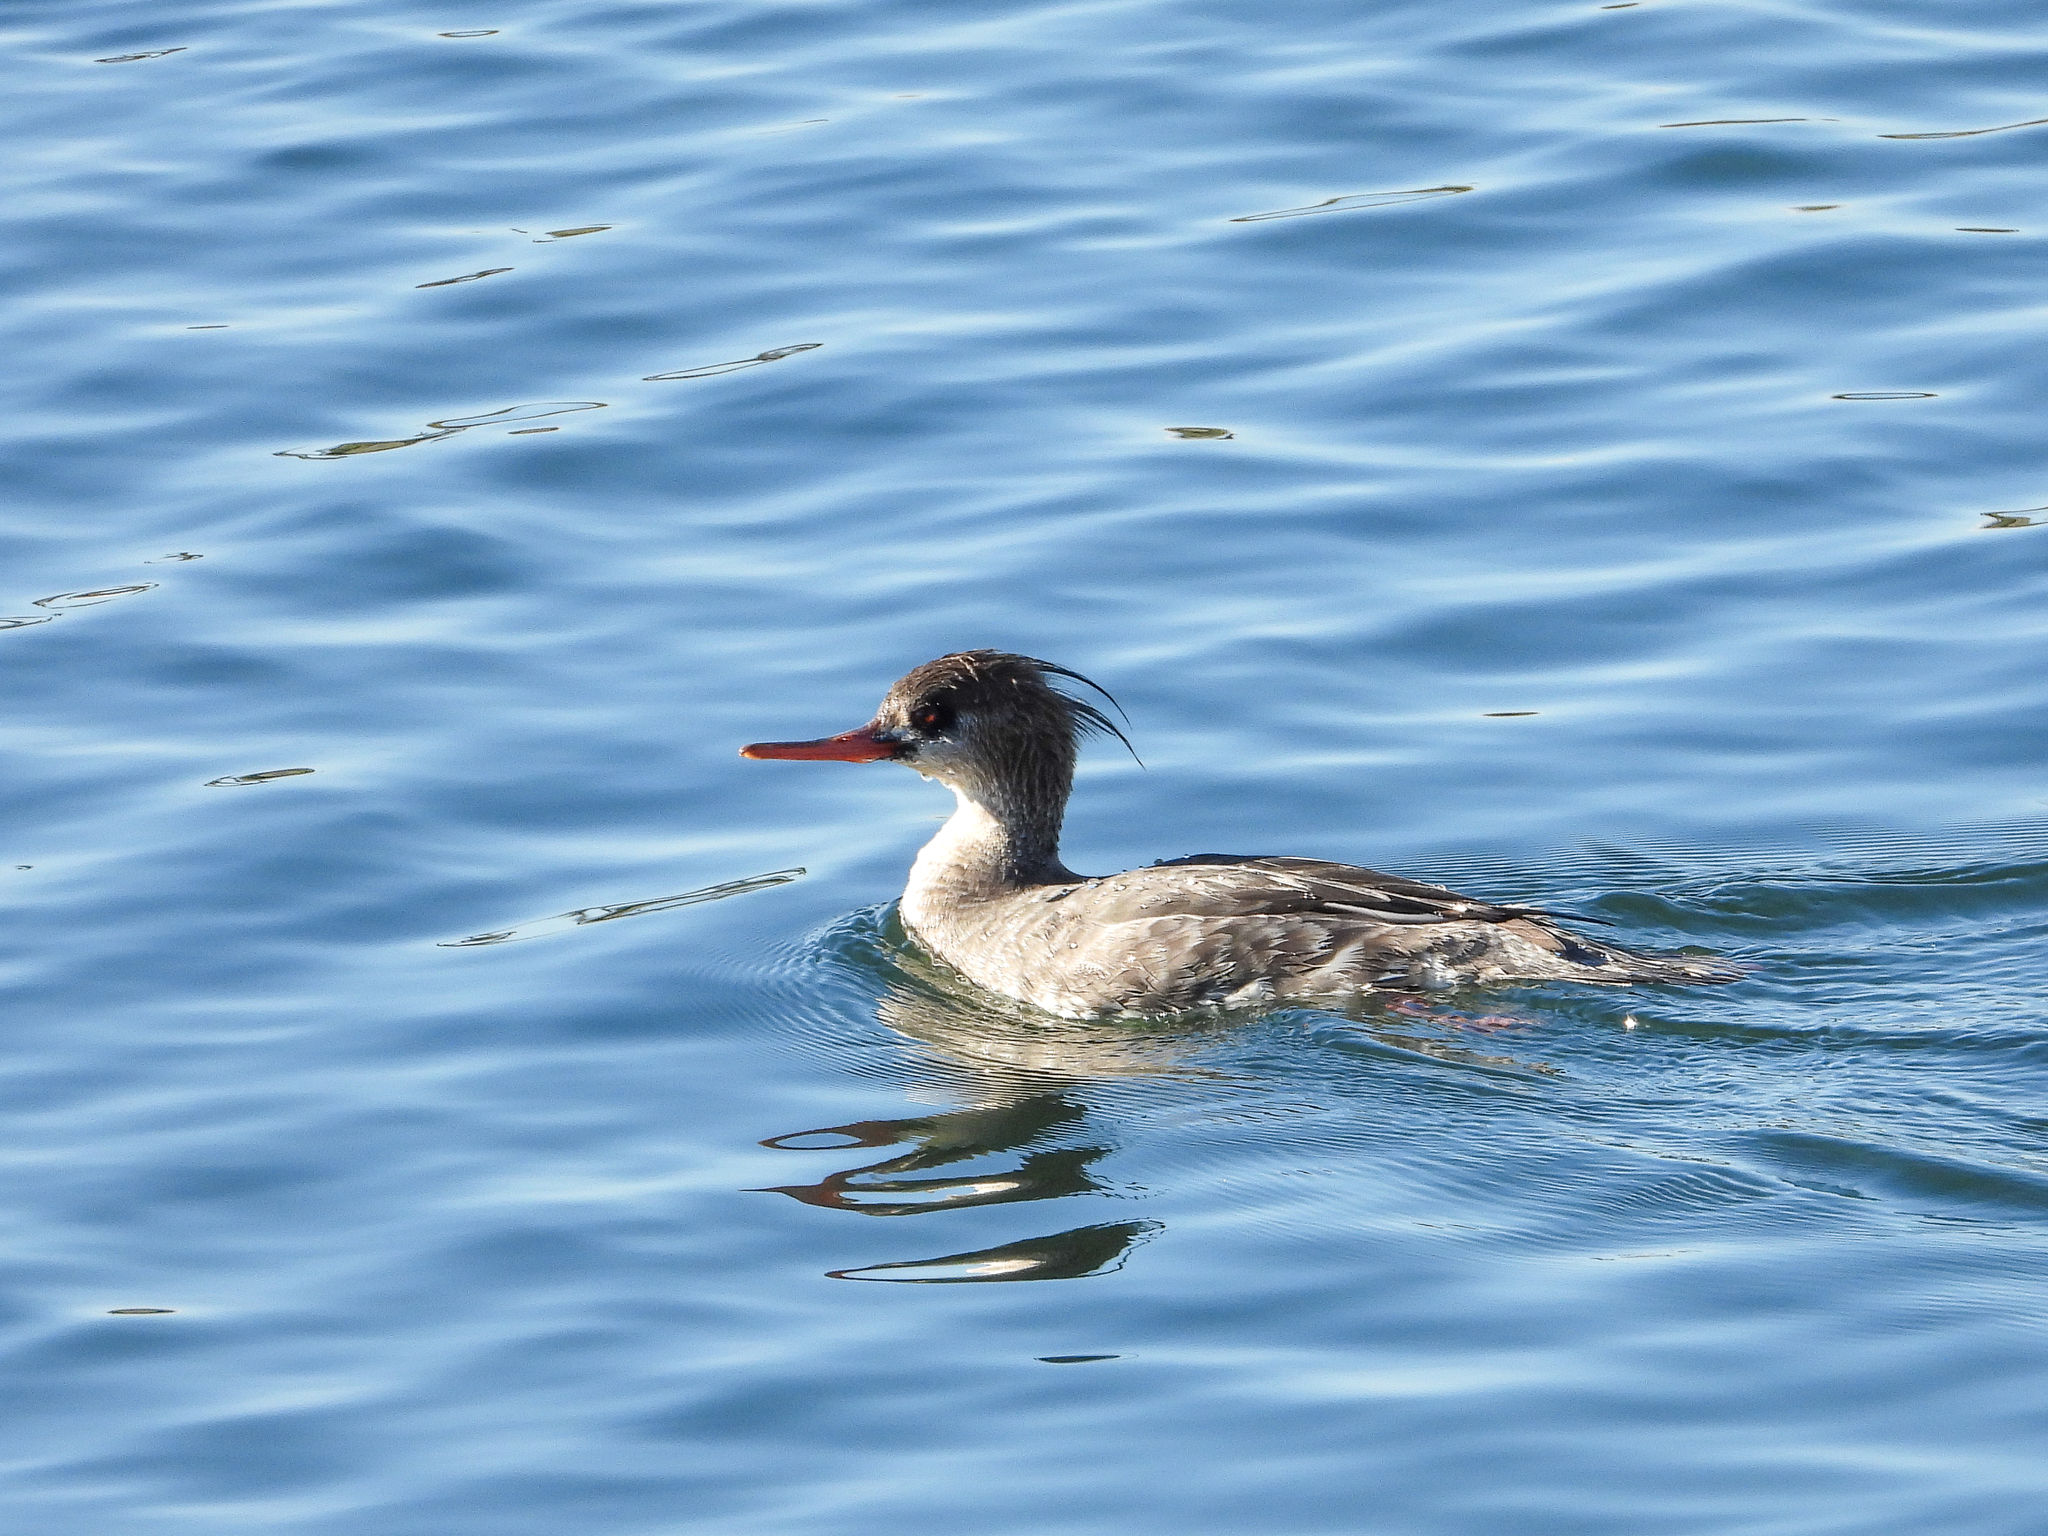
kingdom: Animalia
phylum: Chordata
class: Aves
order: Anseriformes
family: Anatidae
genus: Mergus
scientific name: Mergus serrator
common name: Red-breasted merganser
